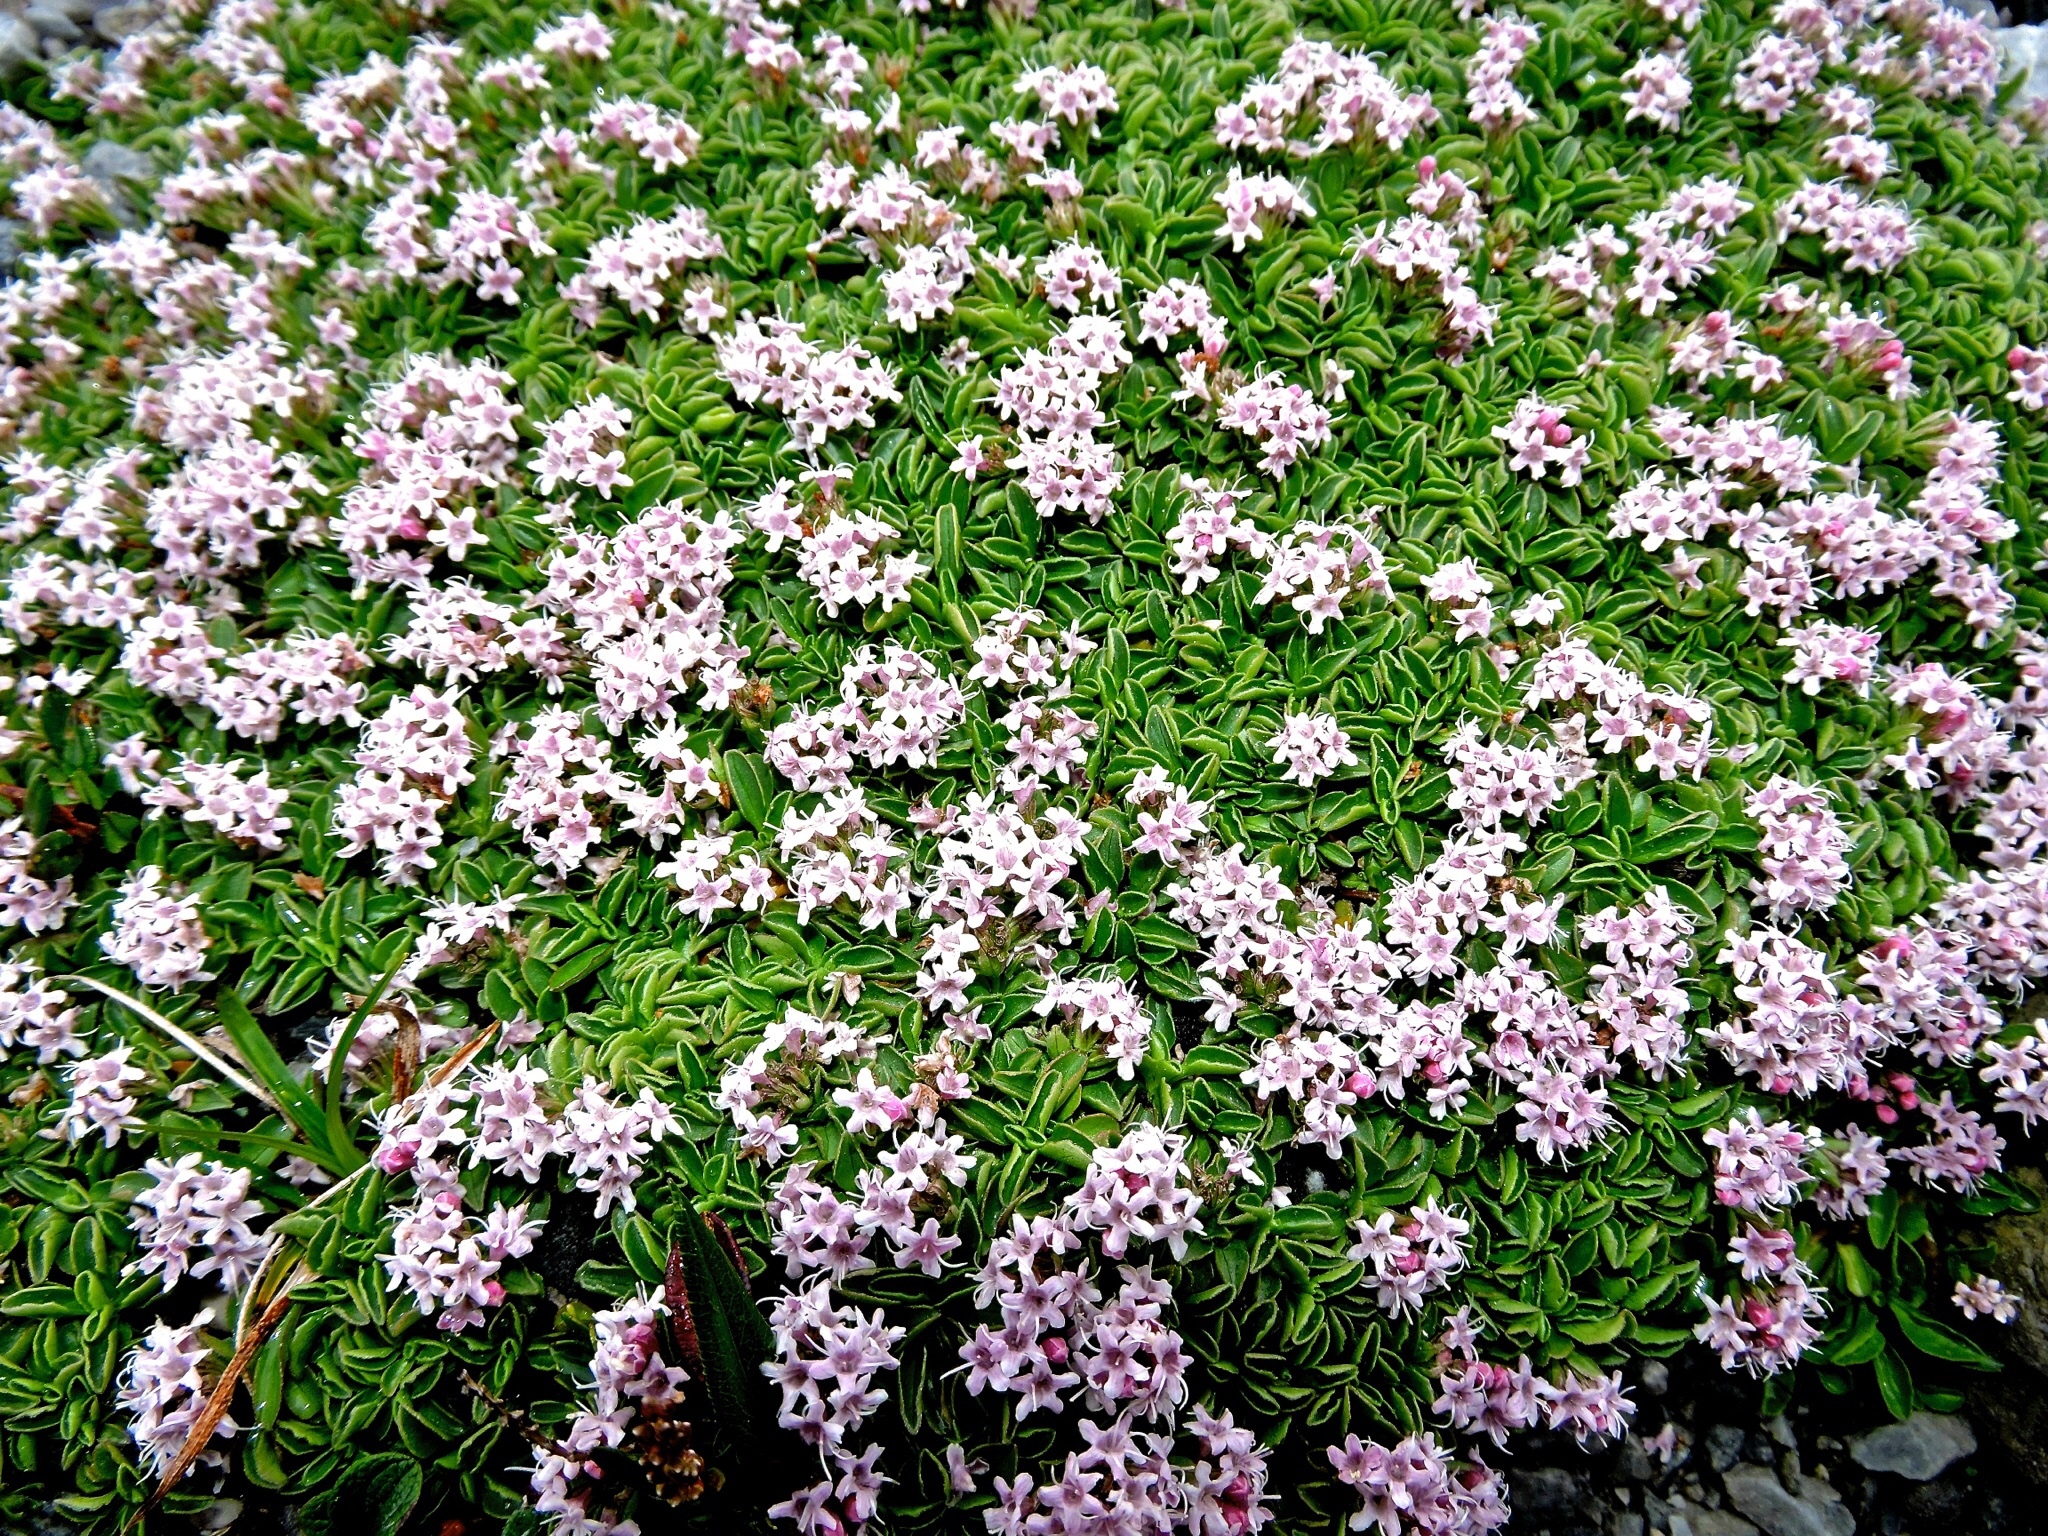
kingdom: Plantae
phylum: Tracheophyta
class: Magnoliopsida
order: Dipsacales
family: Caprifoliaceae
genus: Valeriana
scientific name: Valeriana supina
